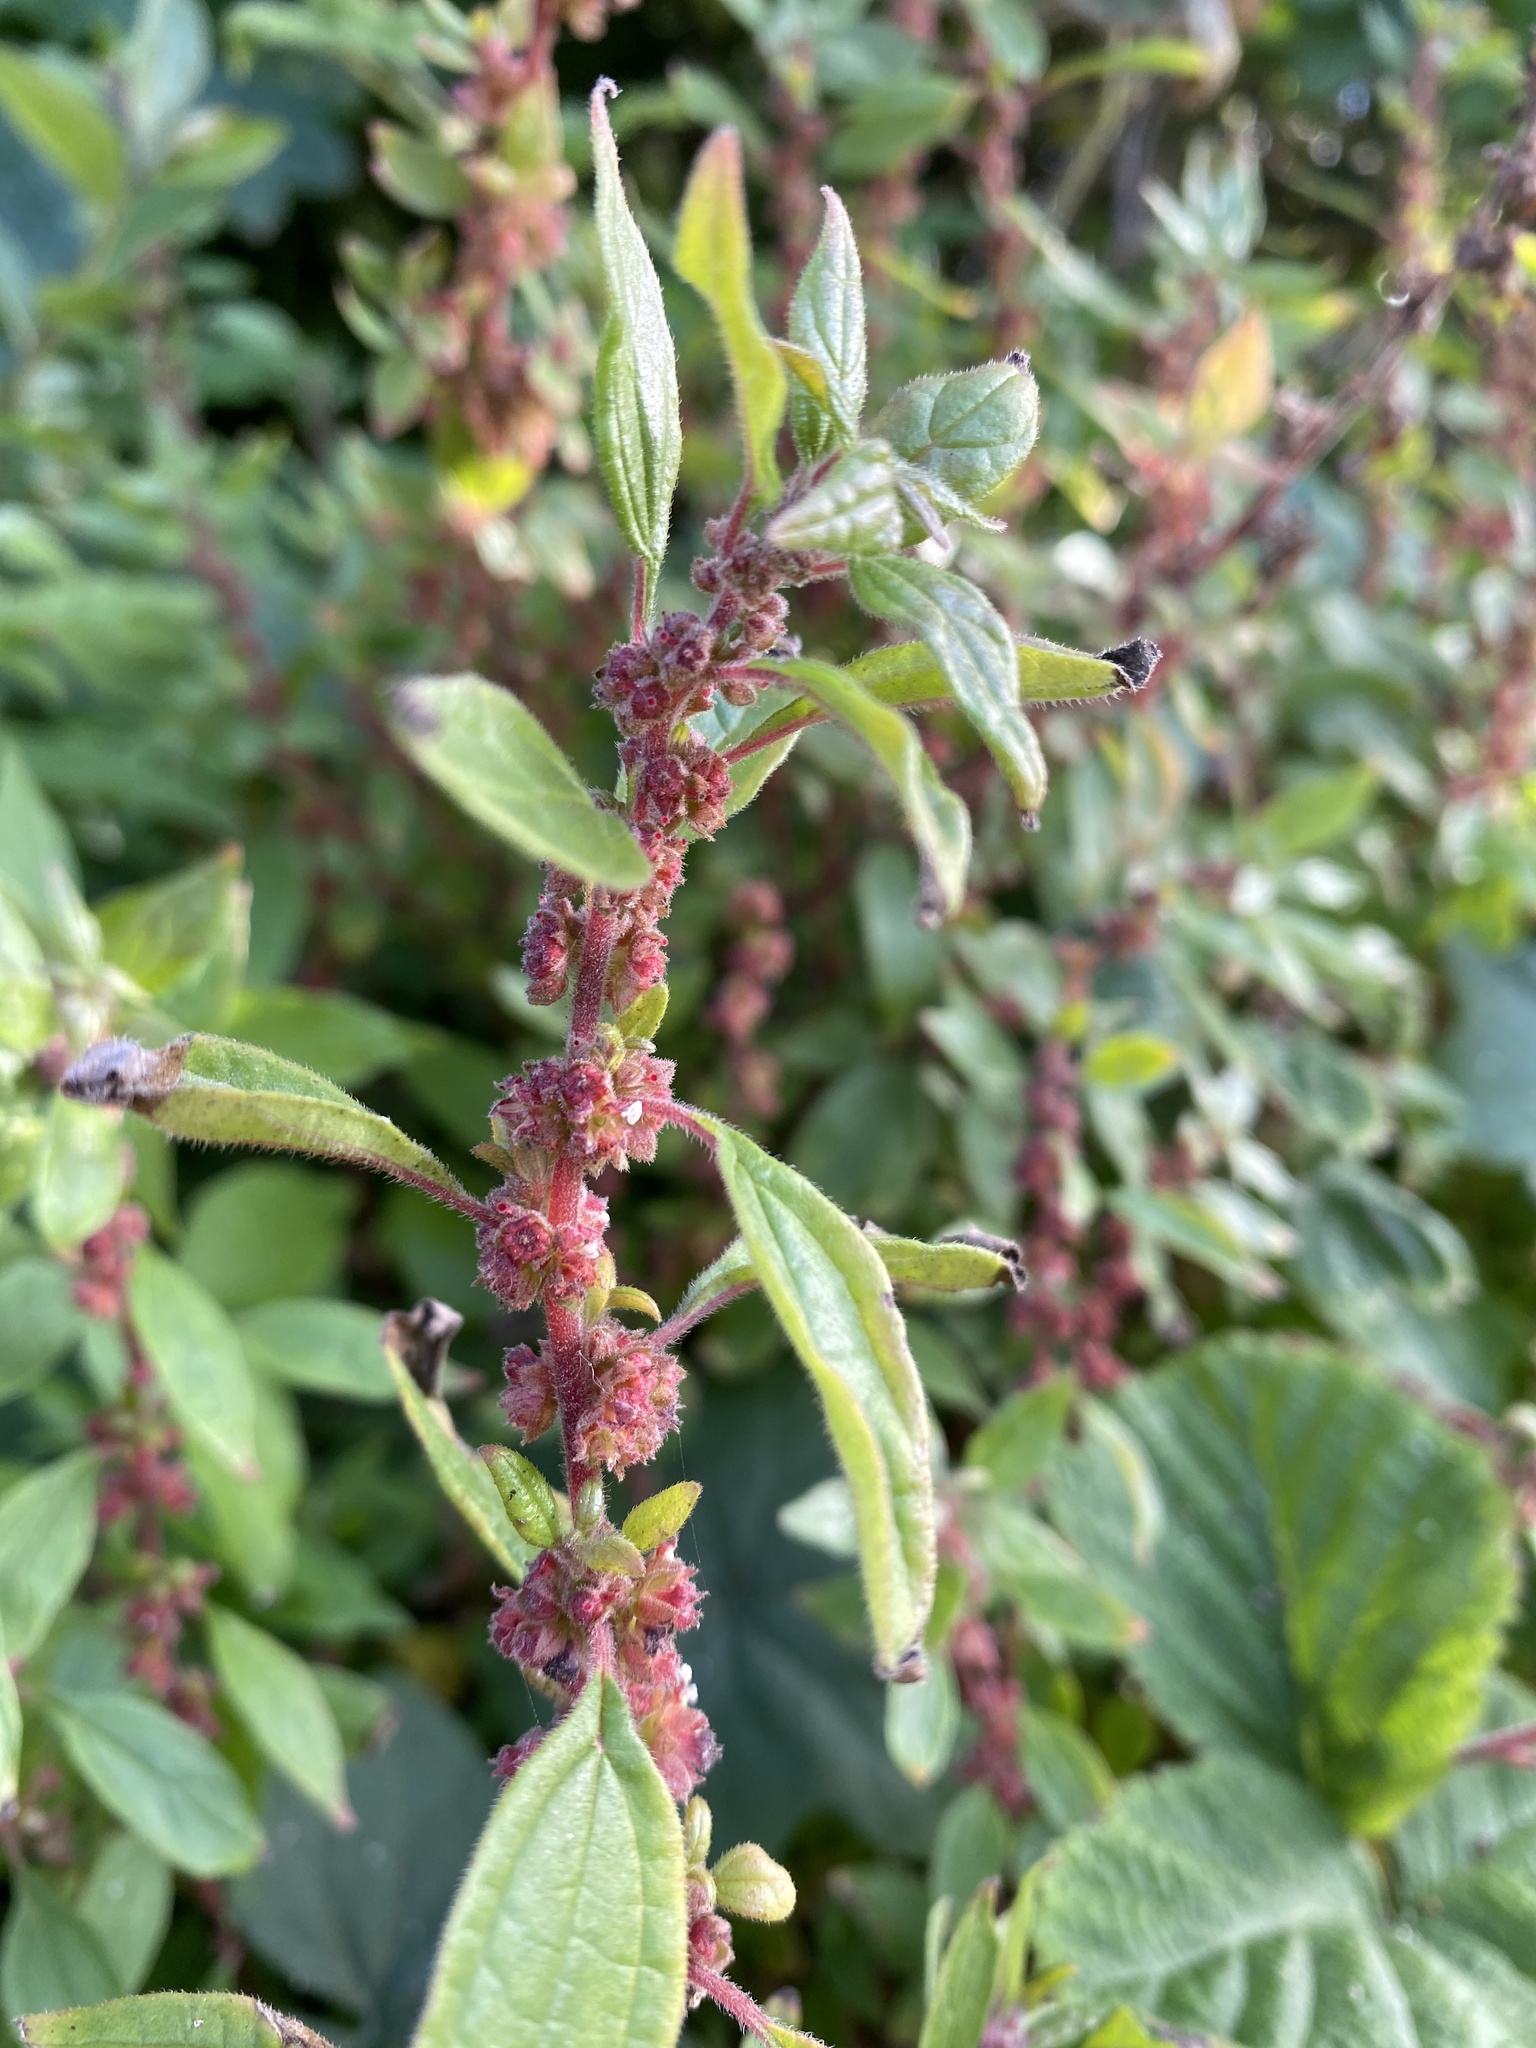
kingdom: Plantae
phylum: Tracheophyta
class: Magnoliopsida
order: Rosales
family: Urticaceae
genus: Parietaria
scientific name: Parietaria judaica
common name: Pellitory-of-the-wall
